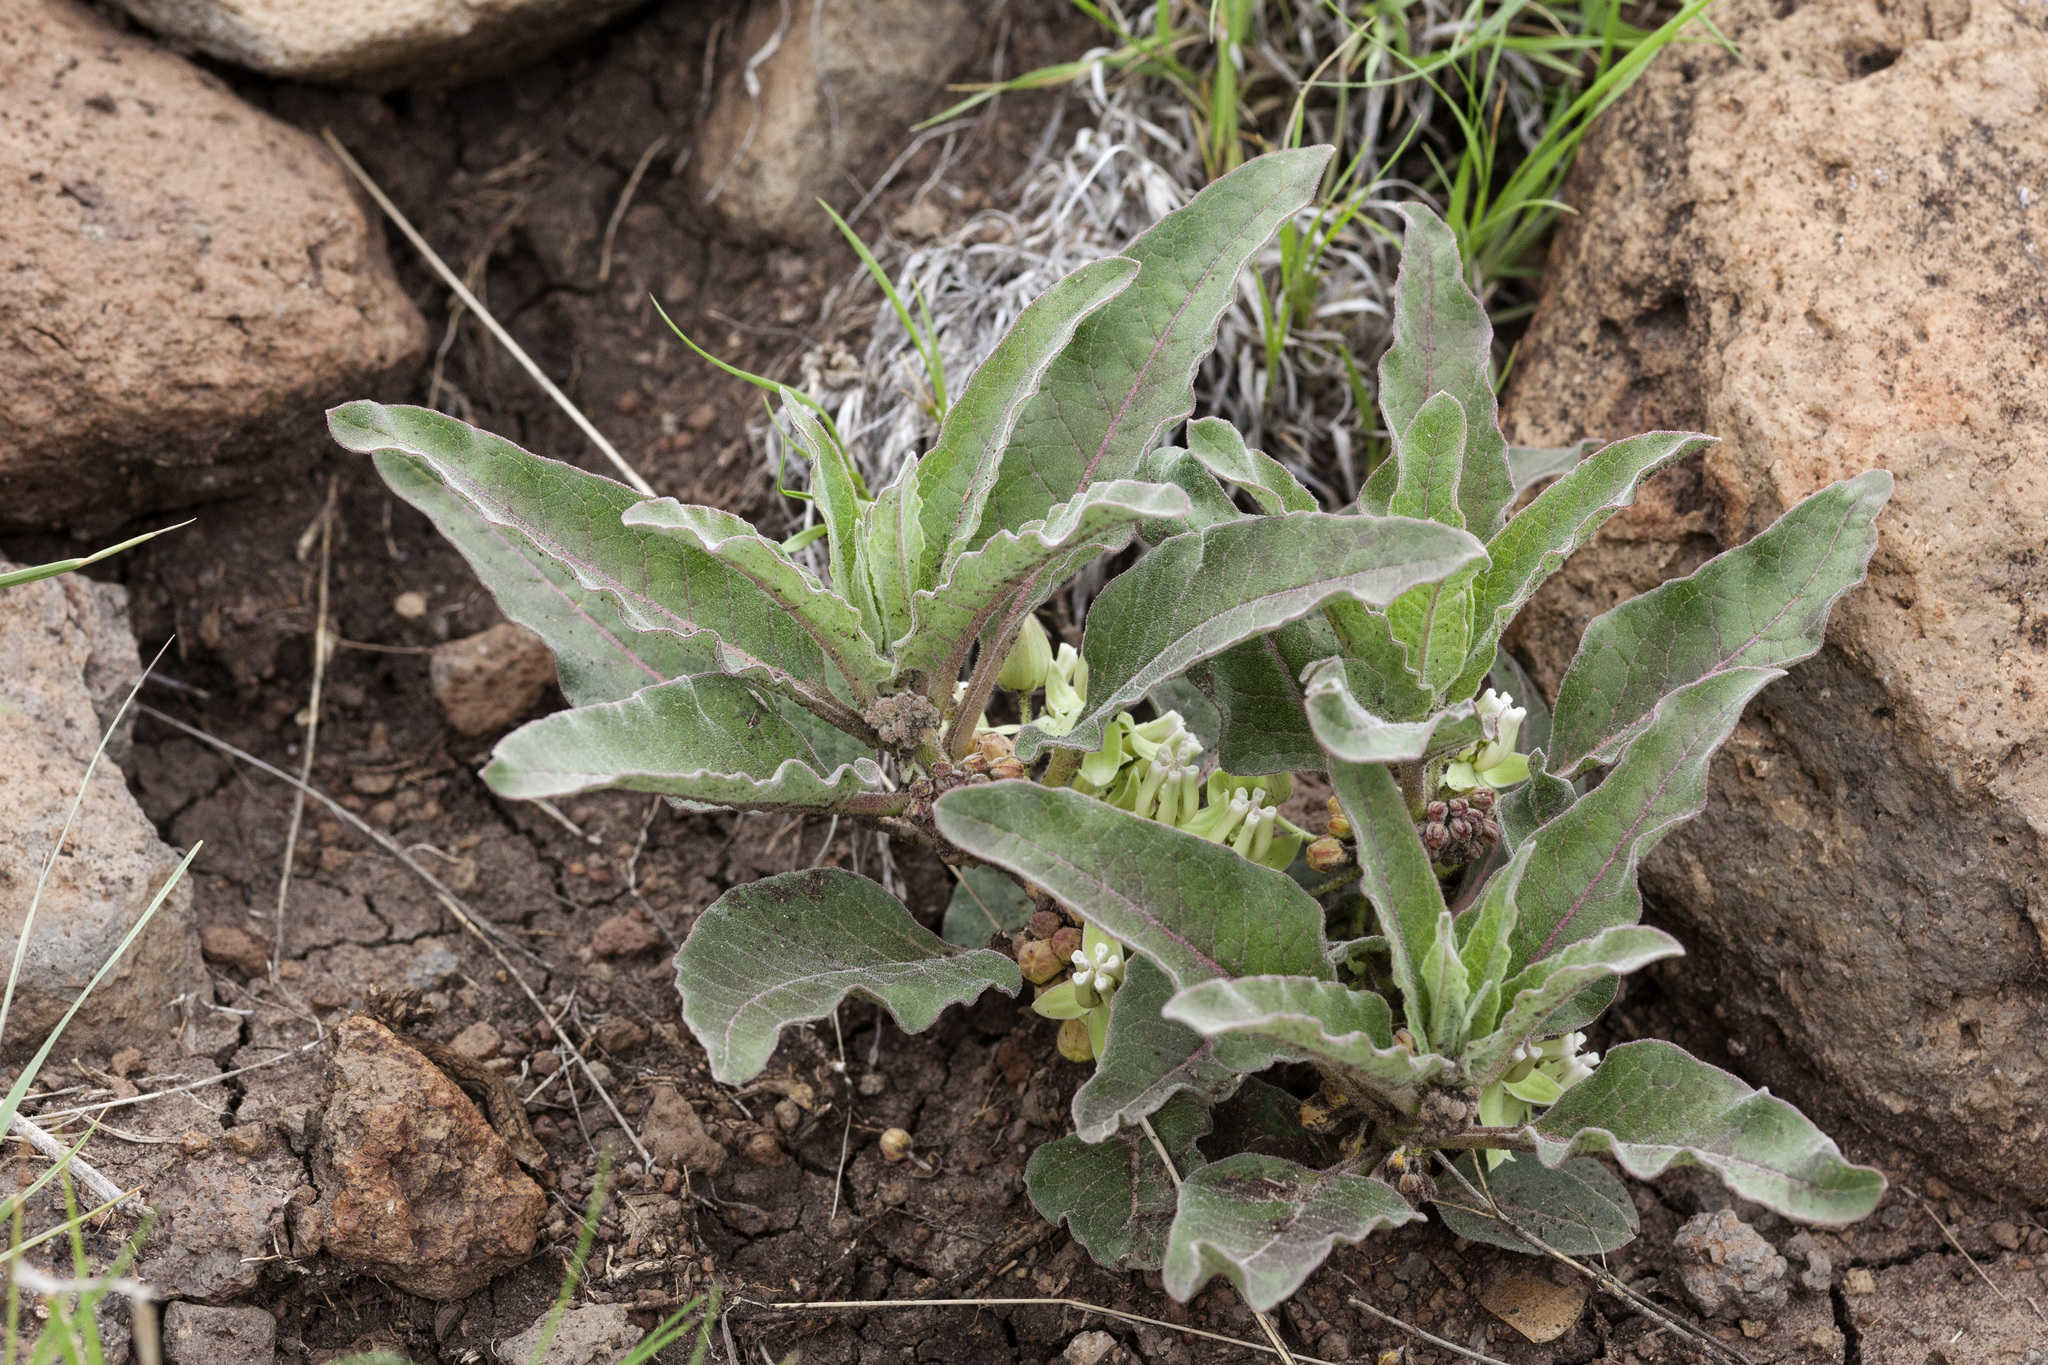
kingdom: Plantae
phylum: Tracheophyta
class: Magnoliopsida
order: Gentianales
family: Apocynaceae
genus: Asclepias
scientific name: Asclepias nyctaginifolia
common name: Mojave milkweed
